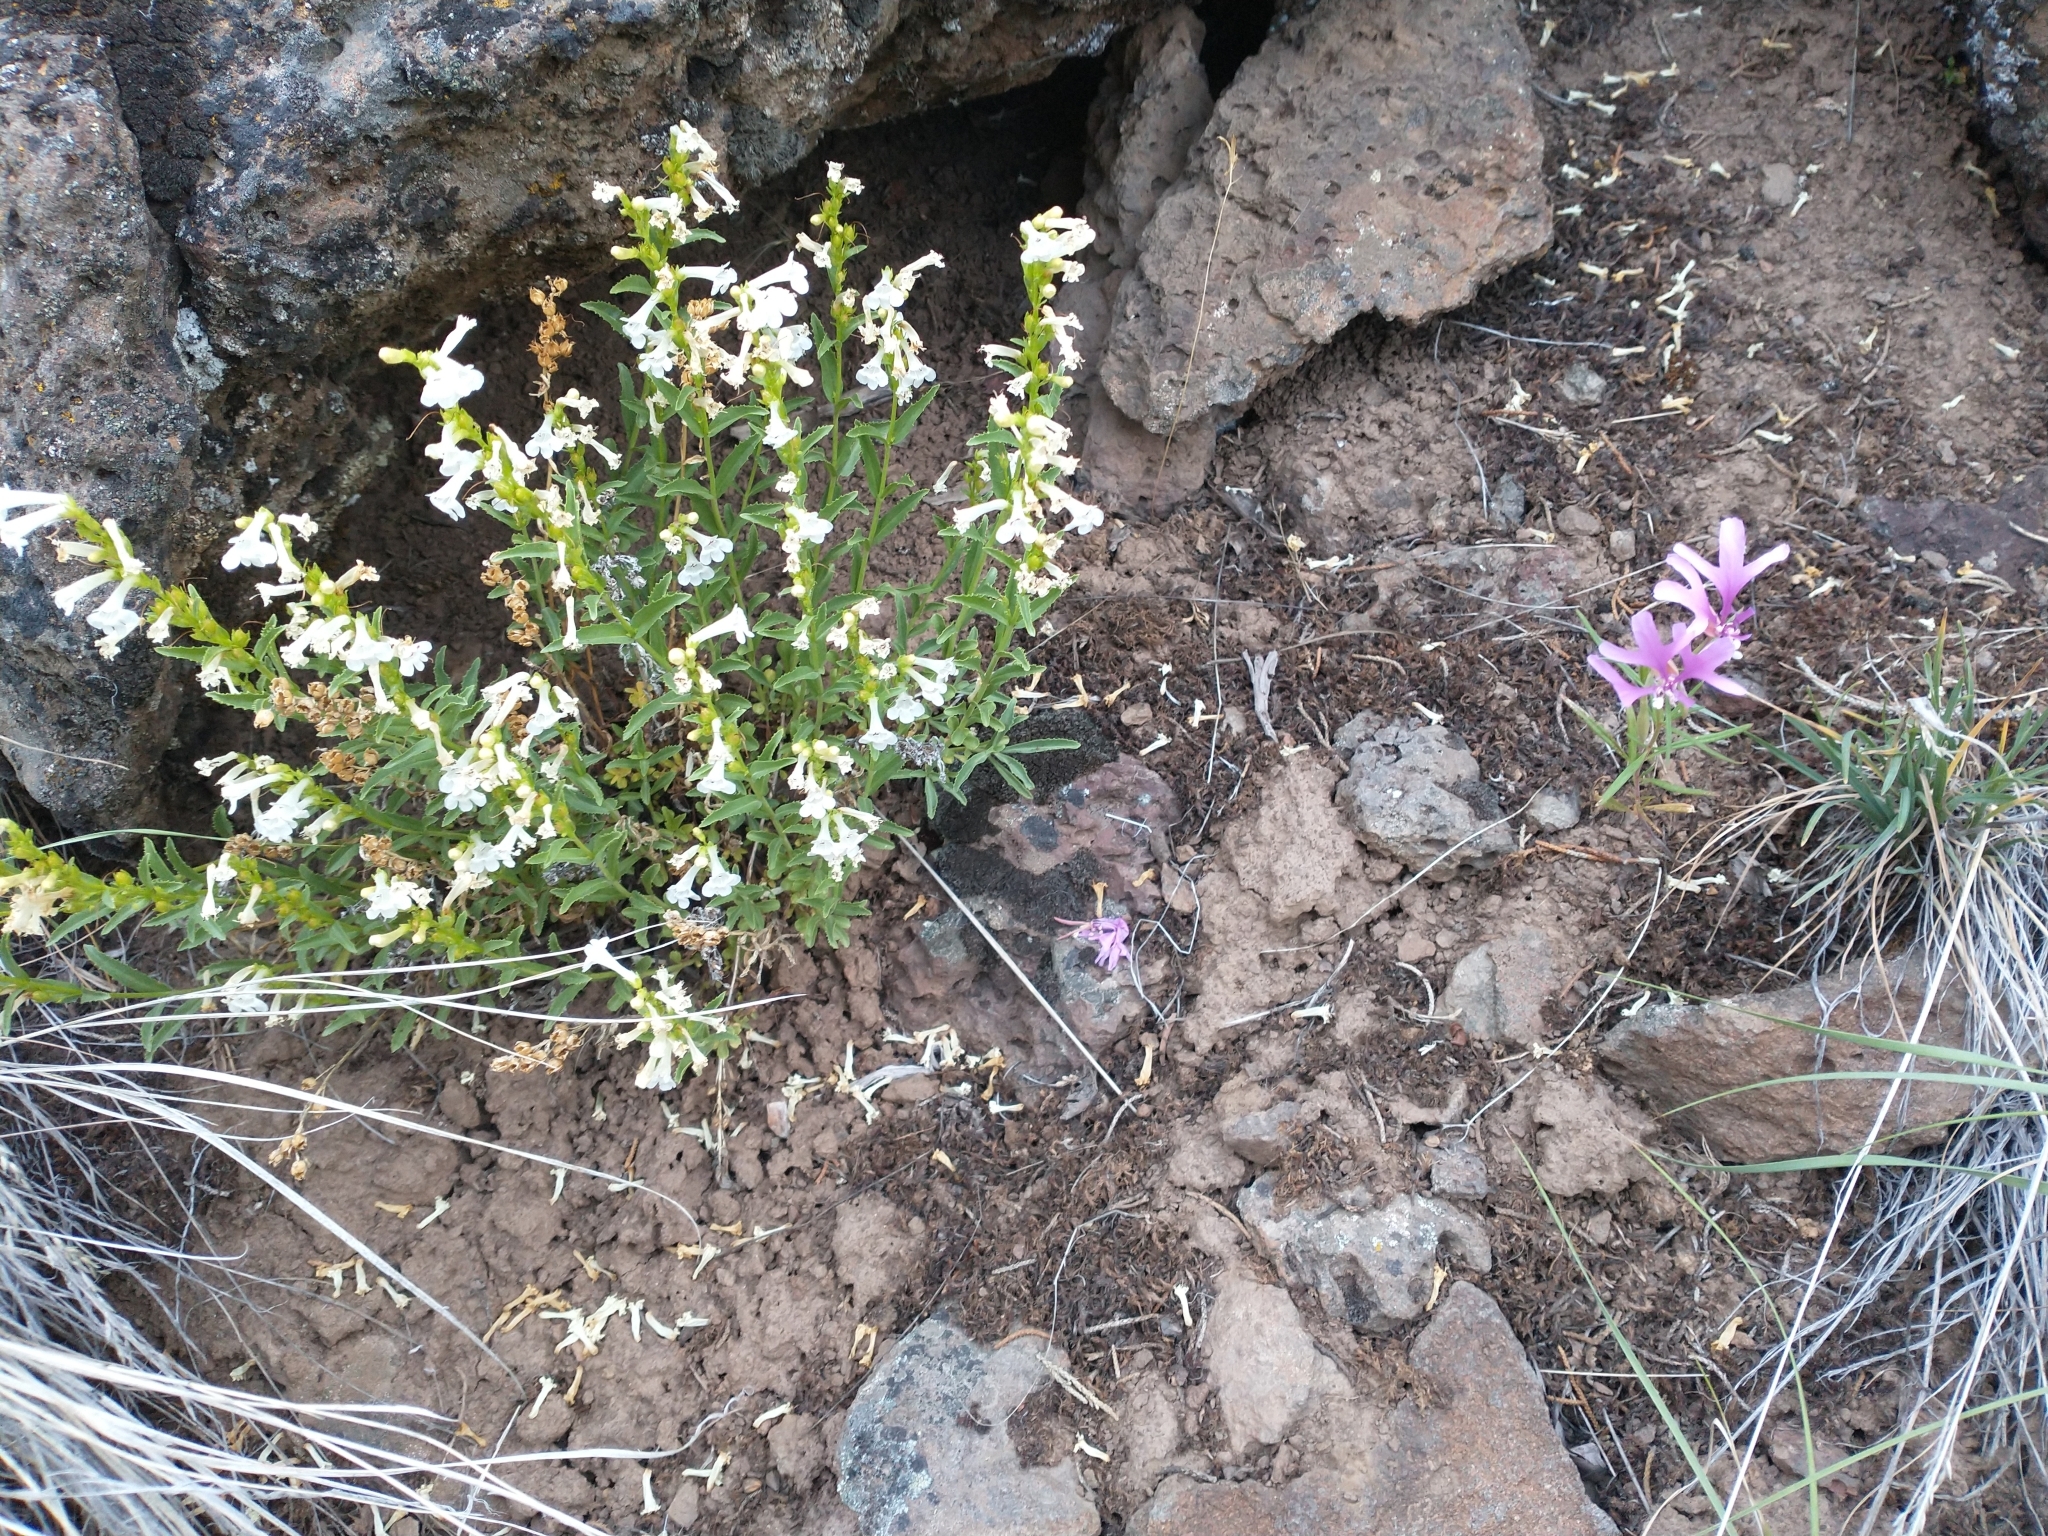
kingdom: Plantae
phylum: Tracheophyta
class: Magnoliopsida
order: Myrtales
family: Onagraceae
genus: Clarkia
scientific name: Clarkia pulchella
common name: Deer horn
